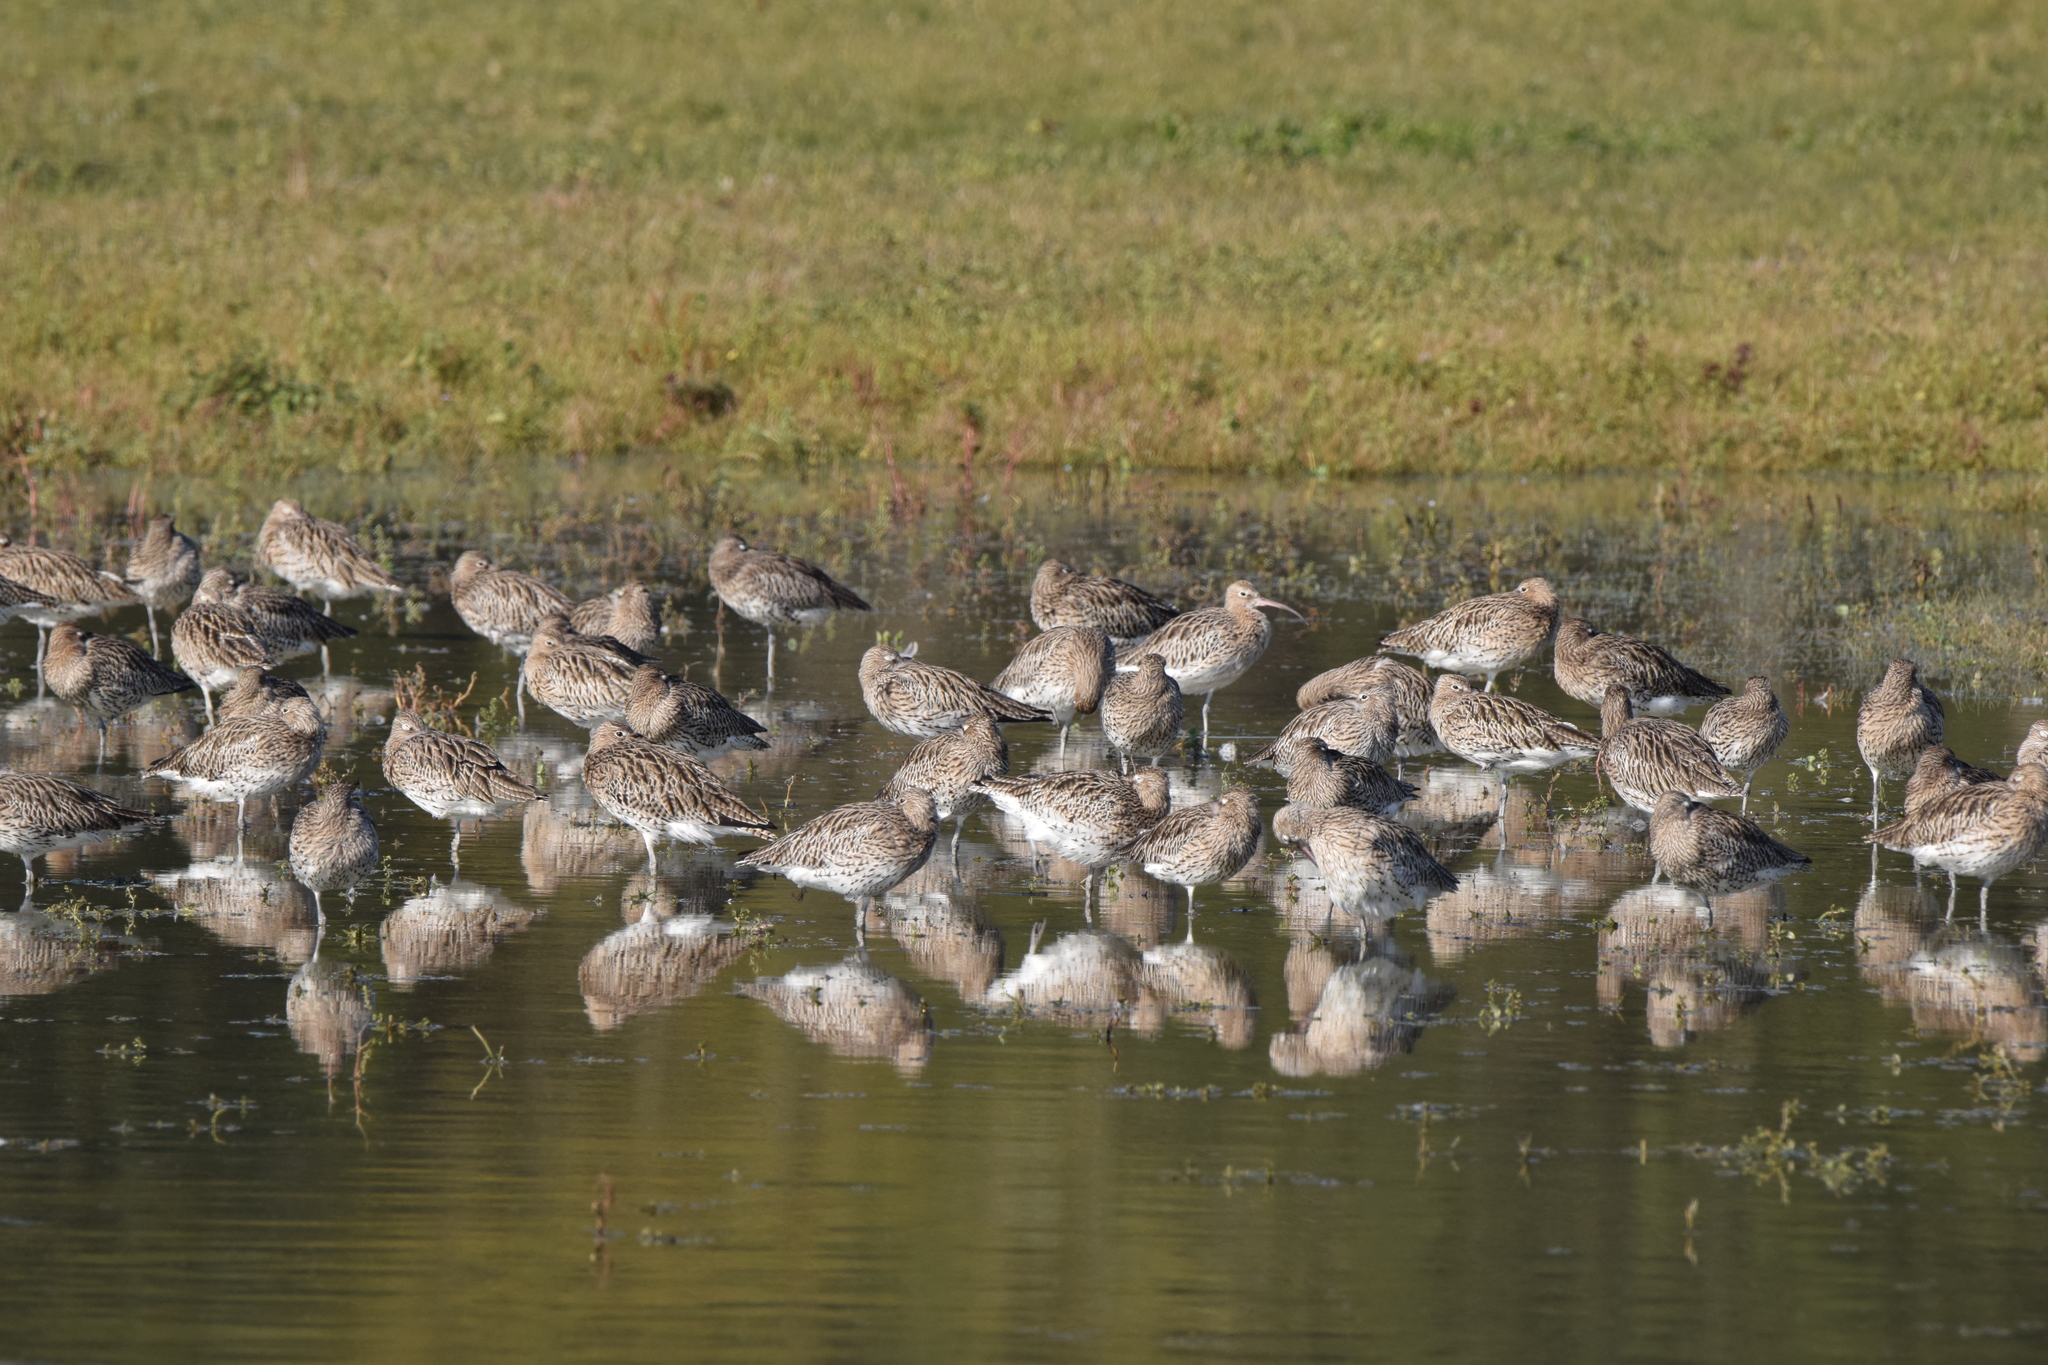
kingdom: Animalia
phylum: Chordata
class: Aves
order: Charadriiformes
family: Scolopacidae
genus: Numenius
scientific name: Numenius arquata
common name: Eurasian curlew
